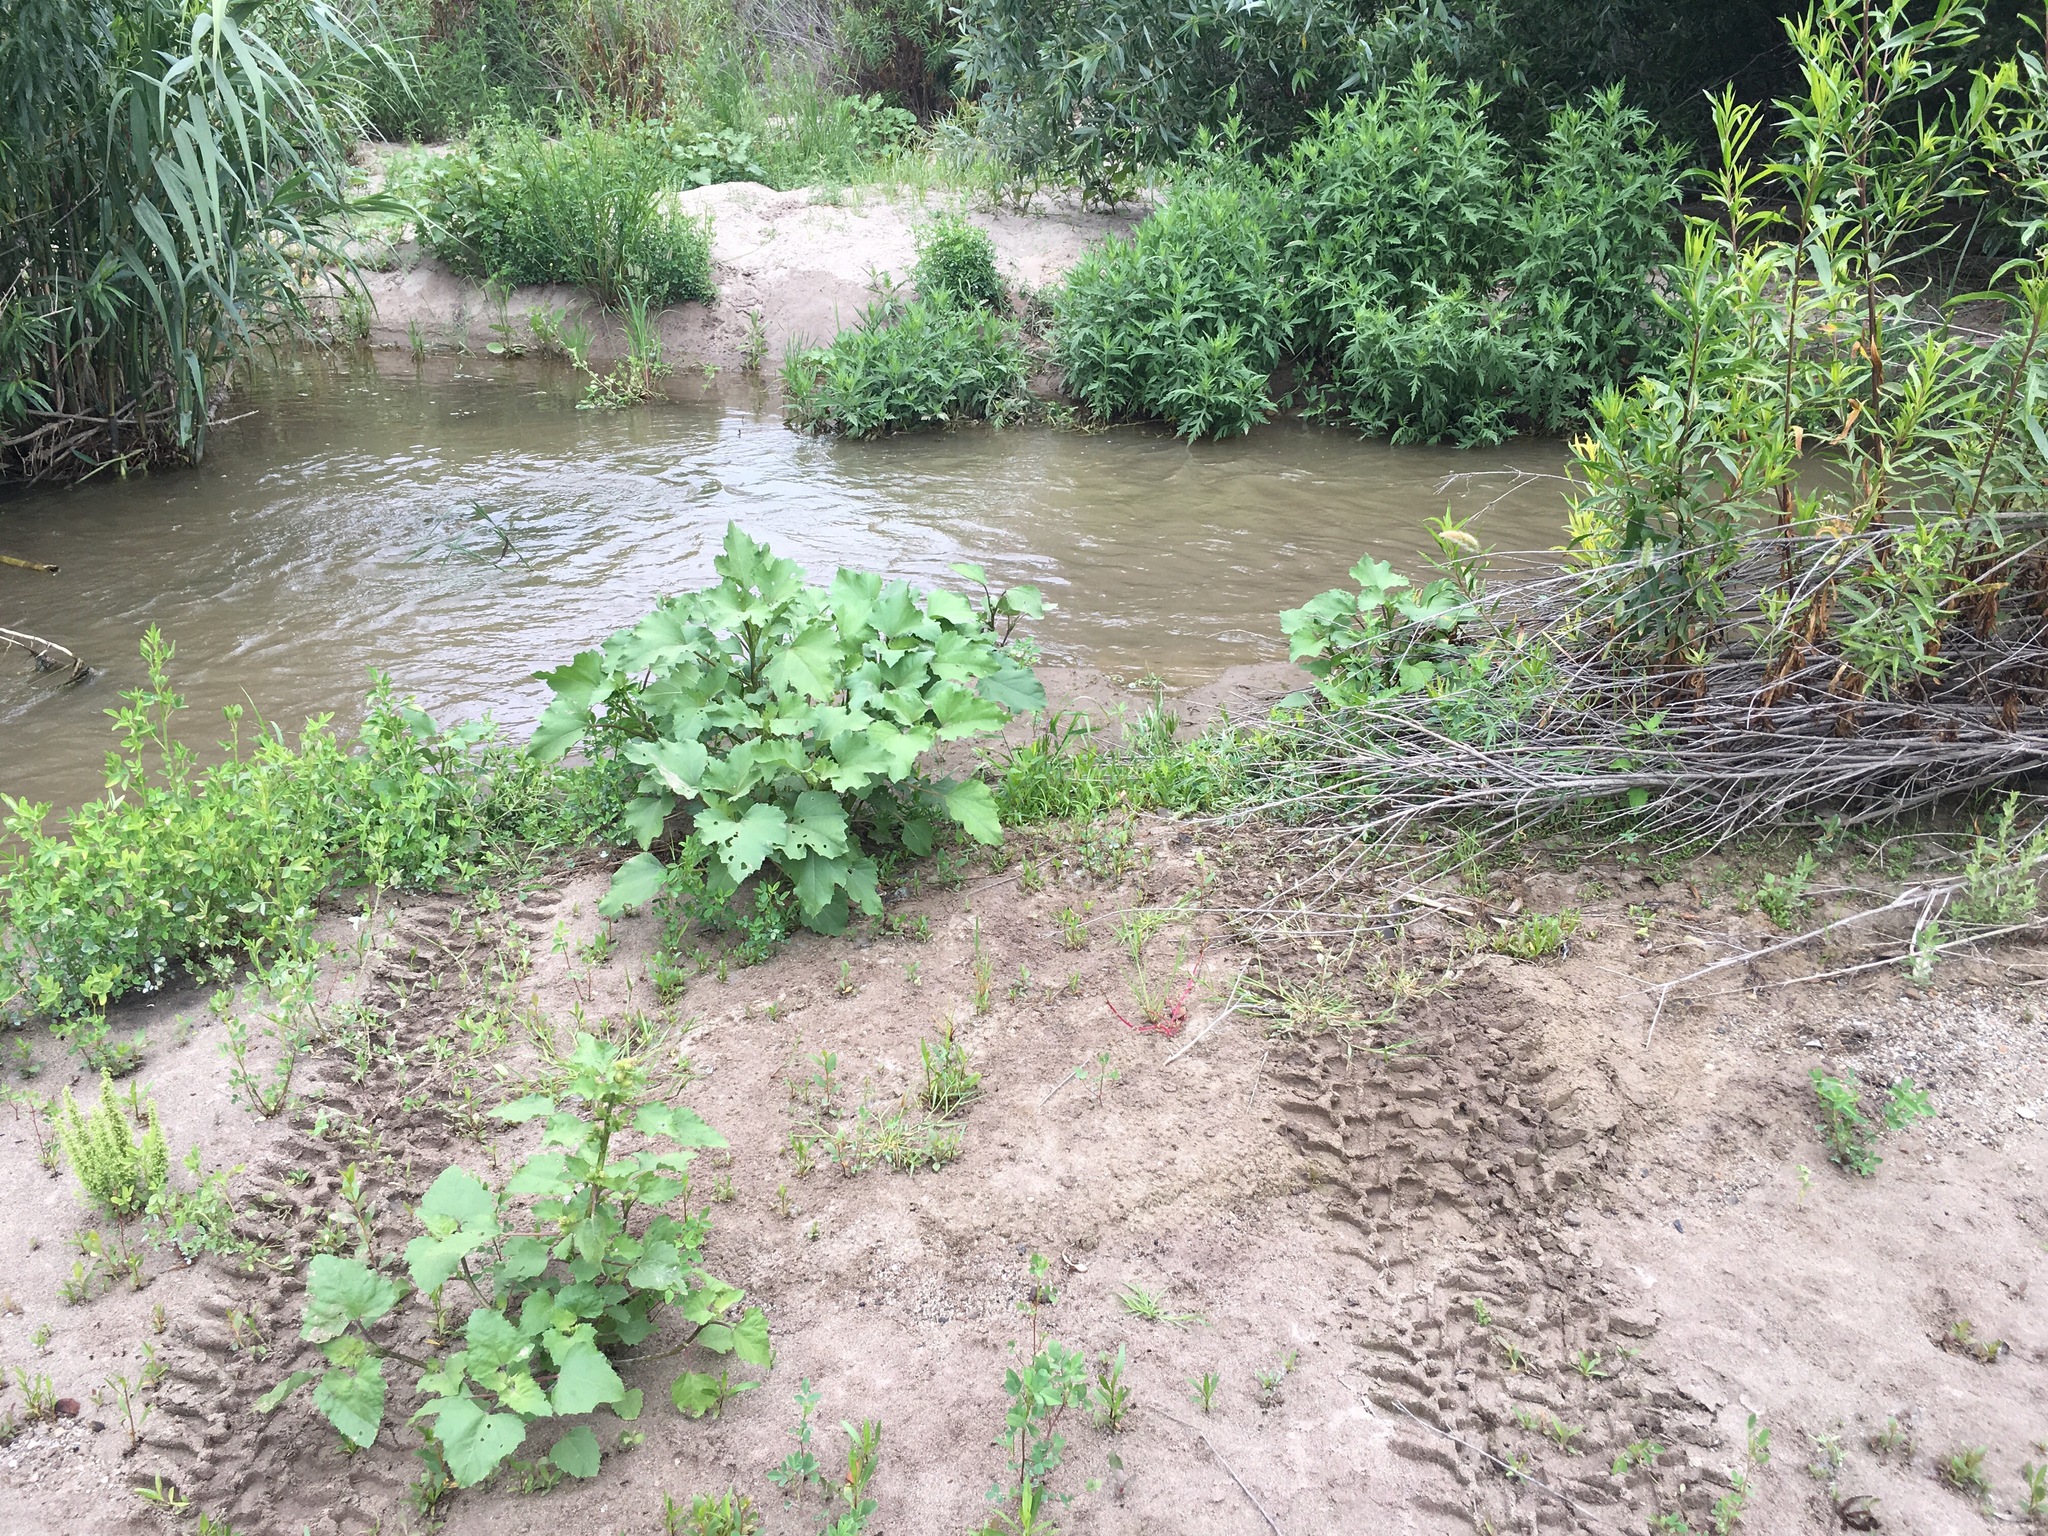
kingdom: Plantae
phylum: Tracheophyta
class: Magnoliopsida
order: Asterales
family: Asteraceae
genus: Xanthium
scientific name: Xanthium strumarium
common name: Rough cocklebur
